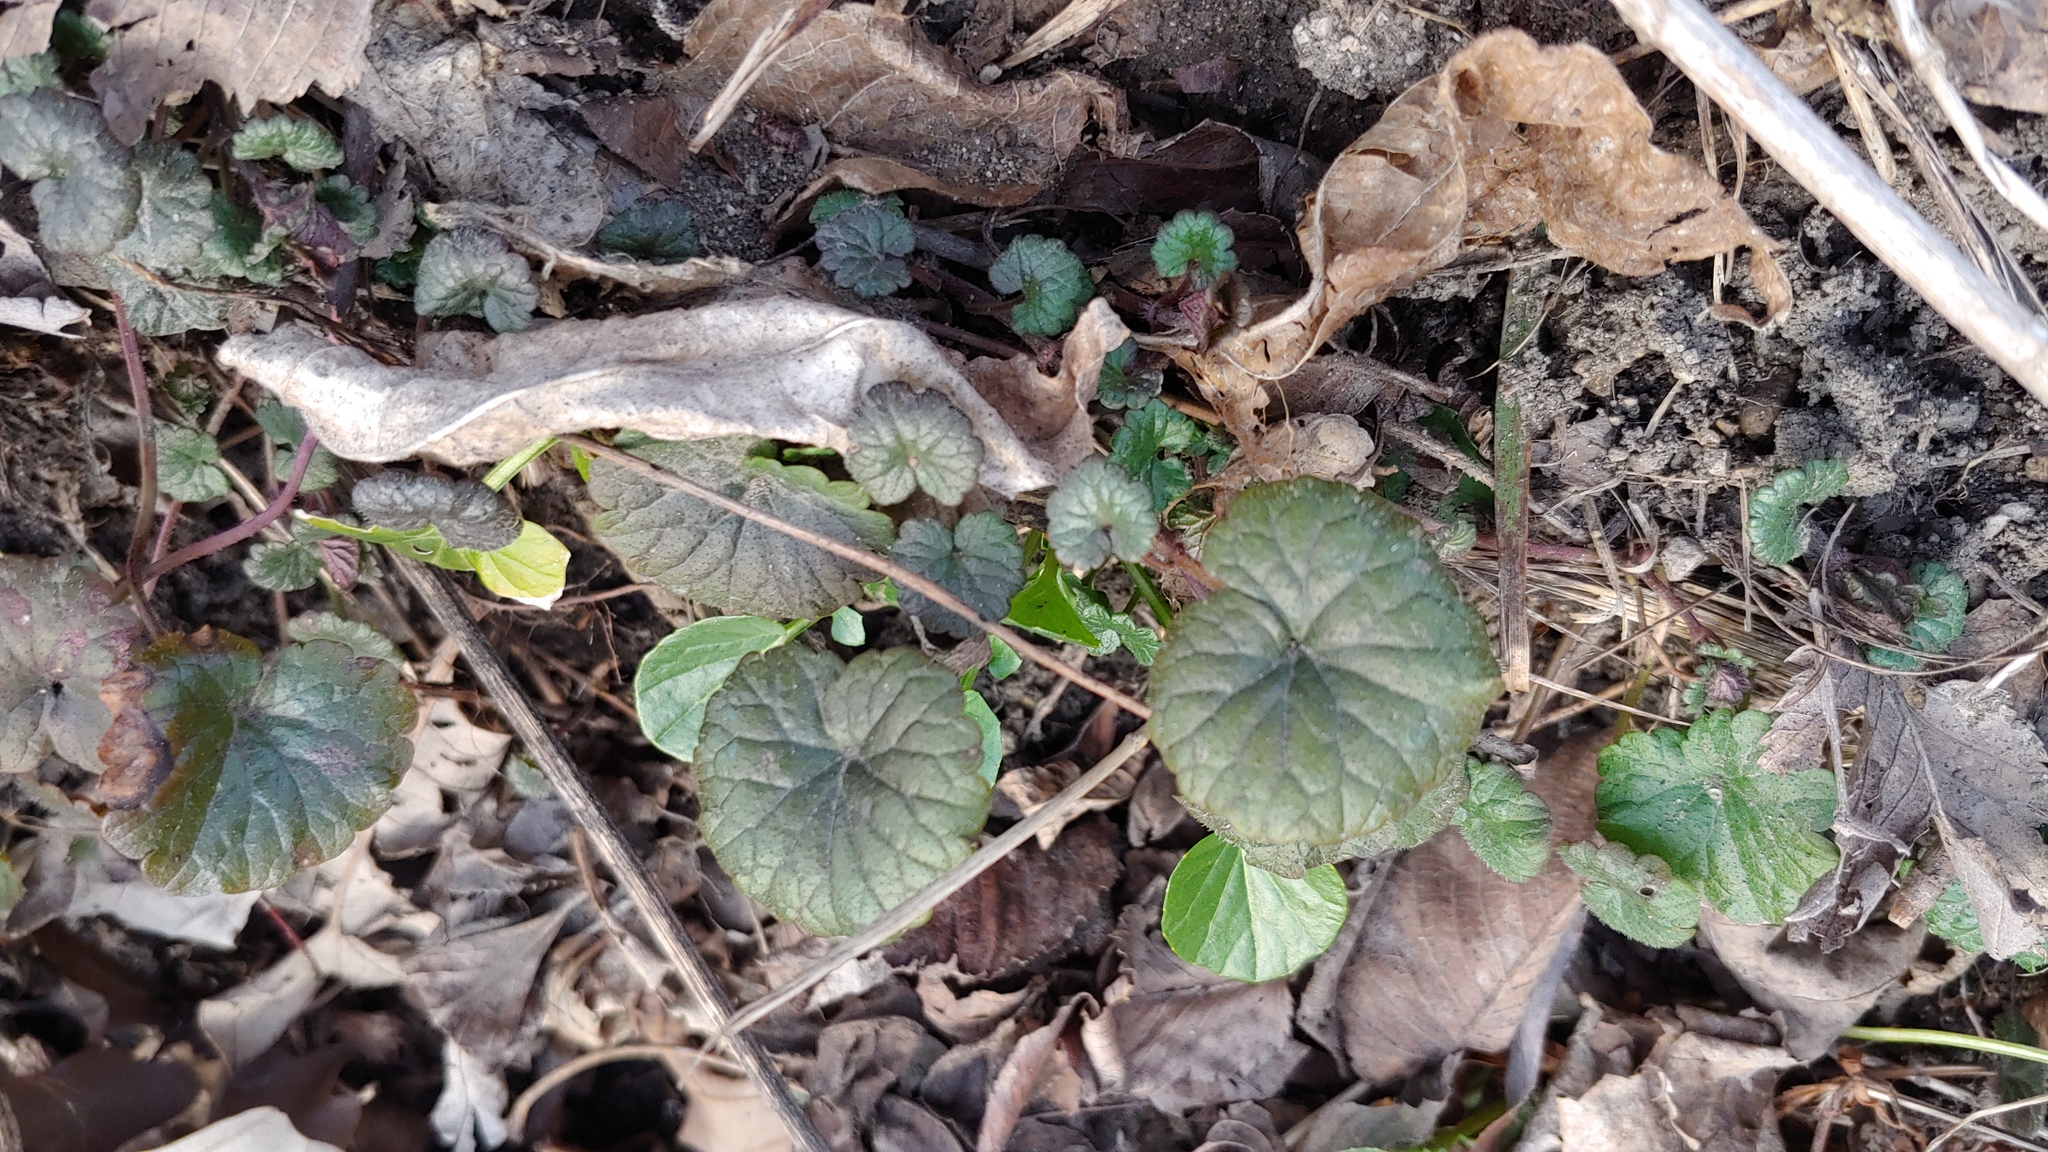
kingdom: Plantae
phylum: Tracheophyta
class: Magnoliopsida
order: Lamiales
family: Lamiaceae
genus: Glechoma
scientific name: Glechoma hederacea
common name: Ground ivy
